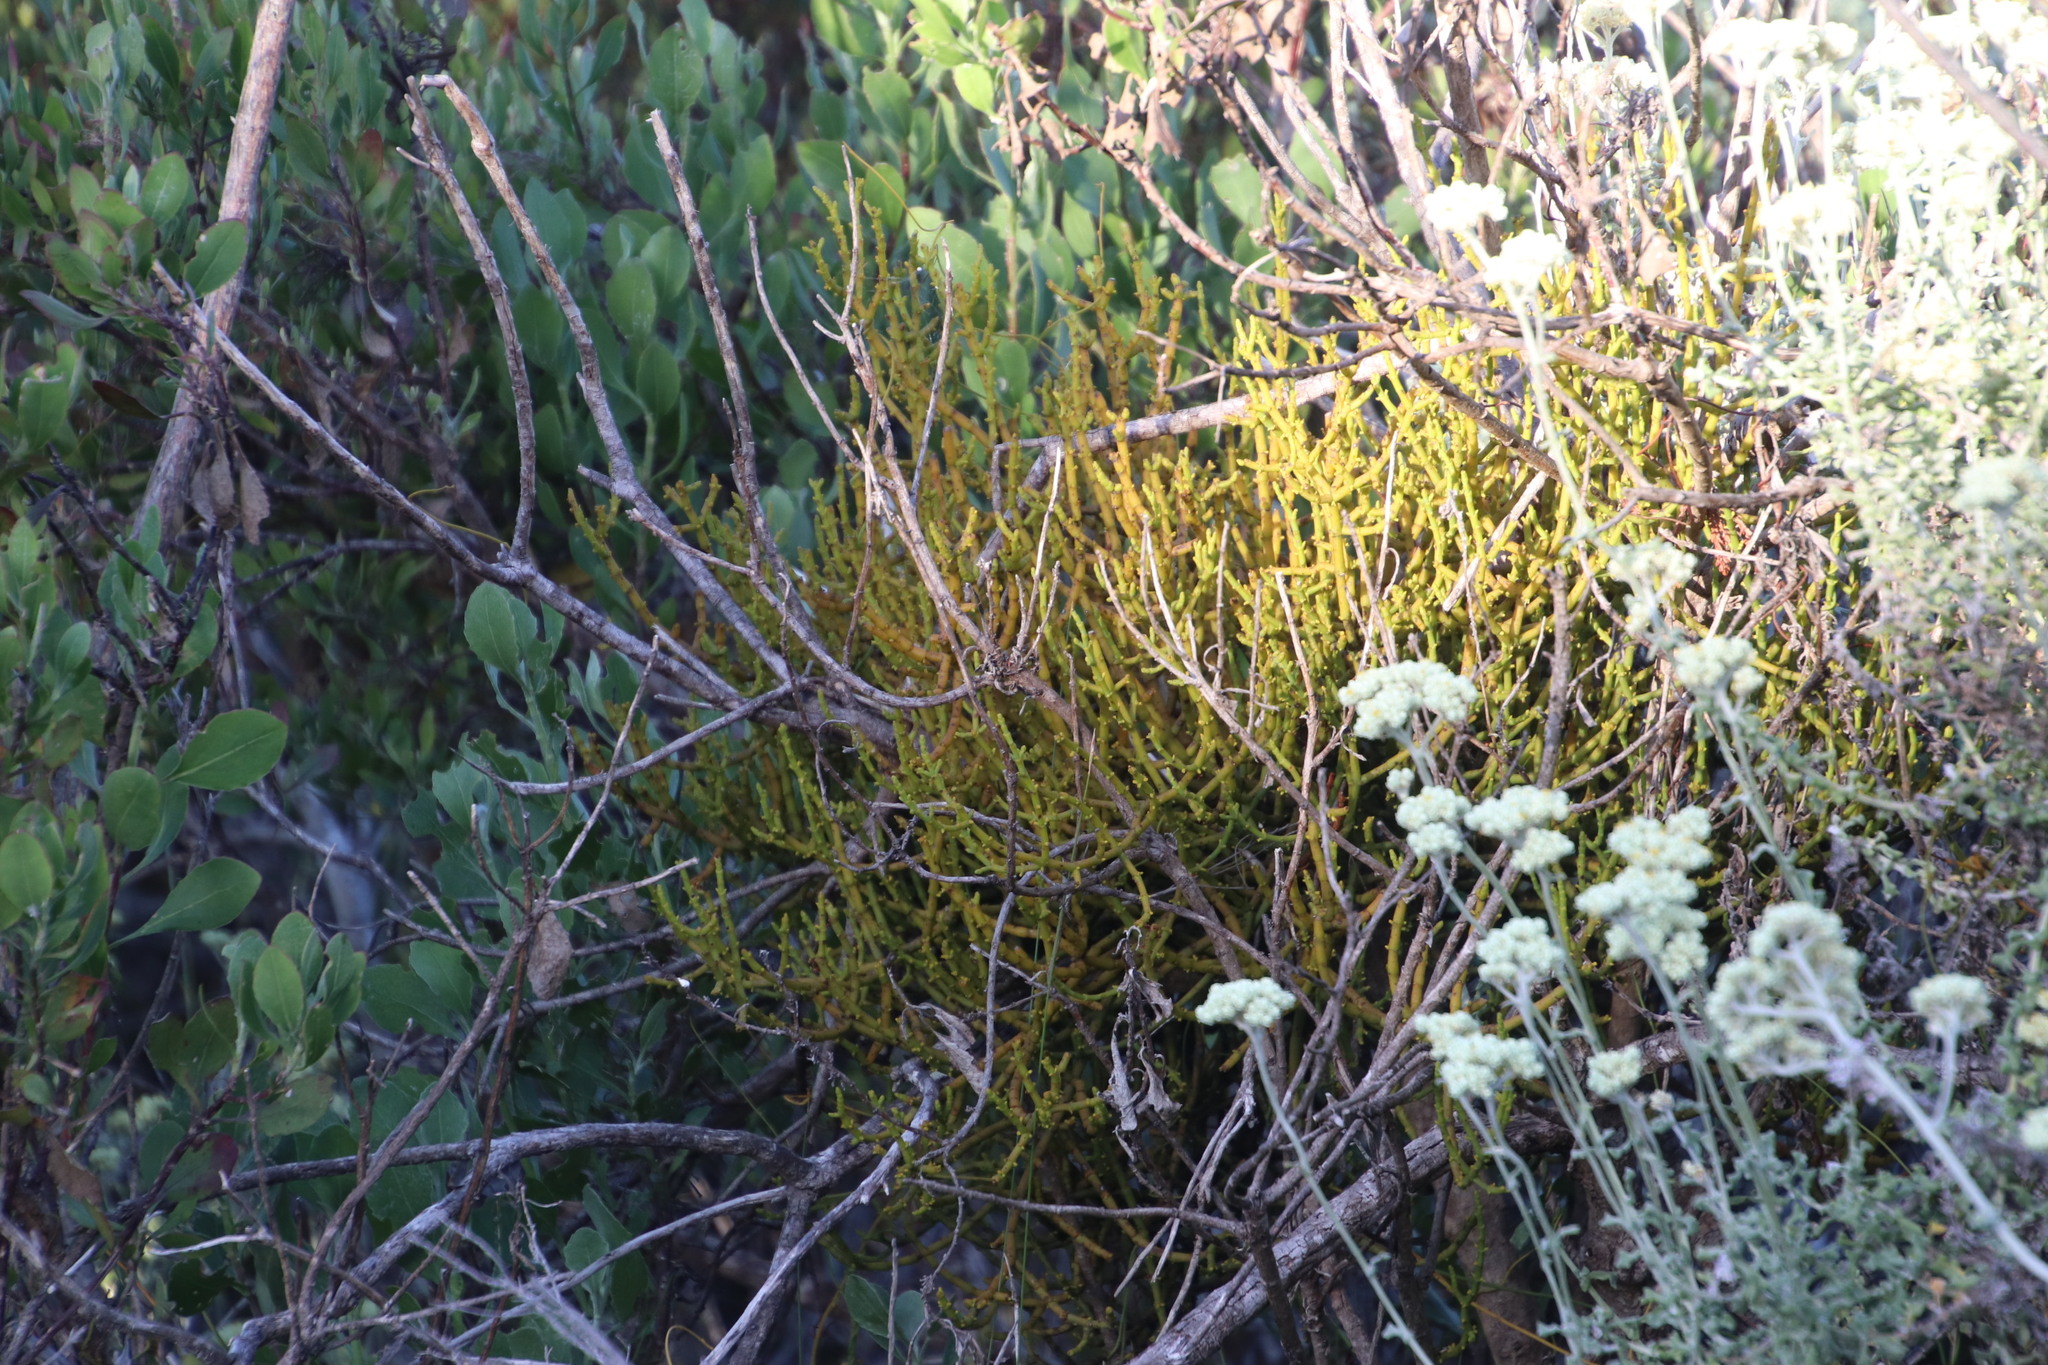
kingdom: Plantae
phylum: Tracheophyta
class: Magnoliopsida
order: Santalales
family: Viscaceae
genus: Viscum
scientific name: Viscum capense
